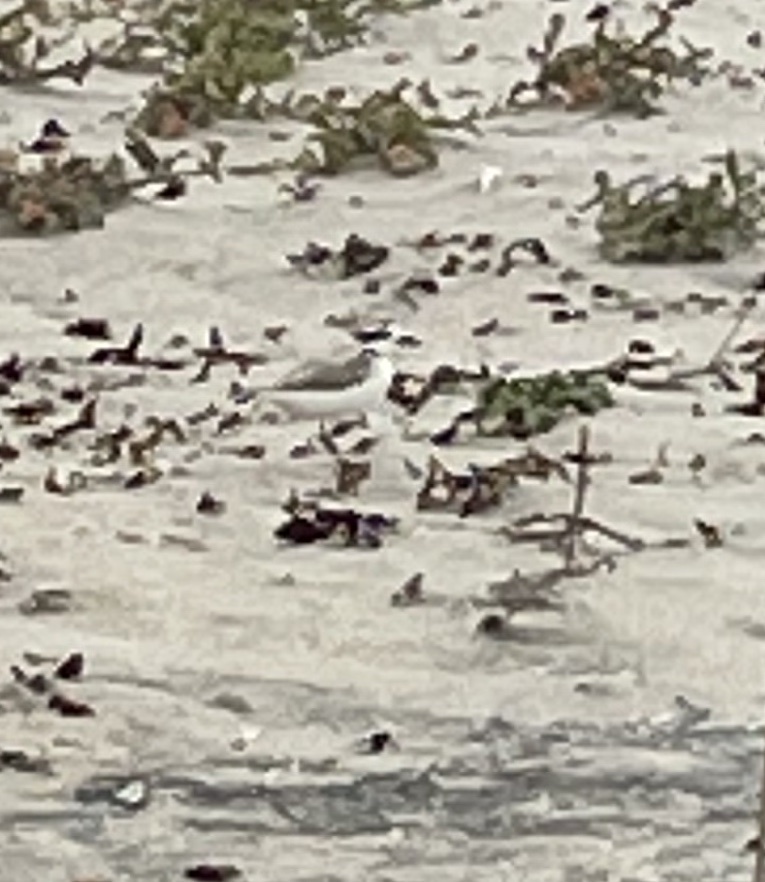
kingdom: Animalia
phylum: Chordata
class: Aves
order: Charadriiformes
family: Charadriidae
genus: Anarhynchus
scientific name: Anarhynchus
